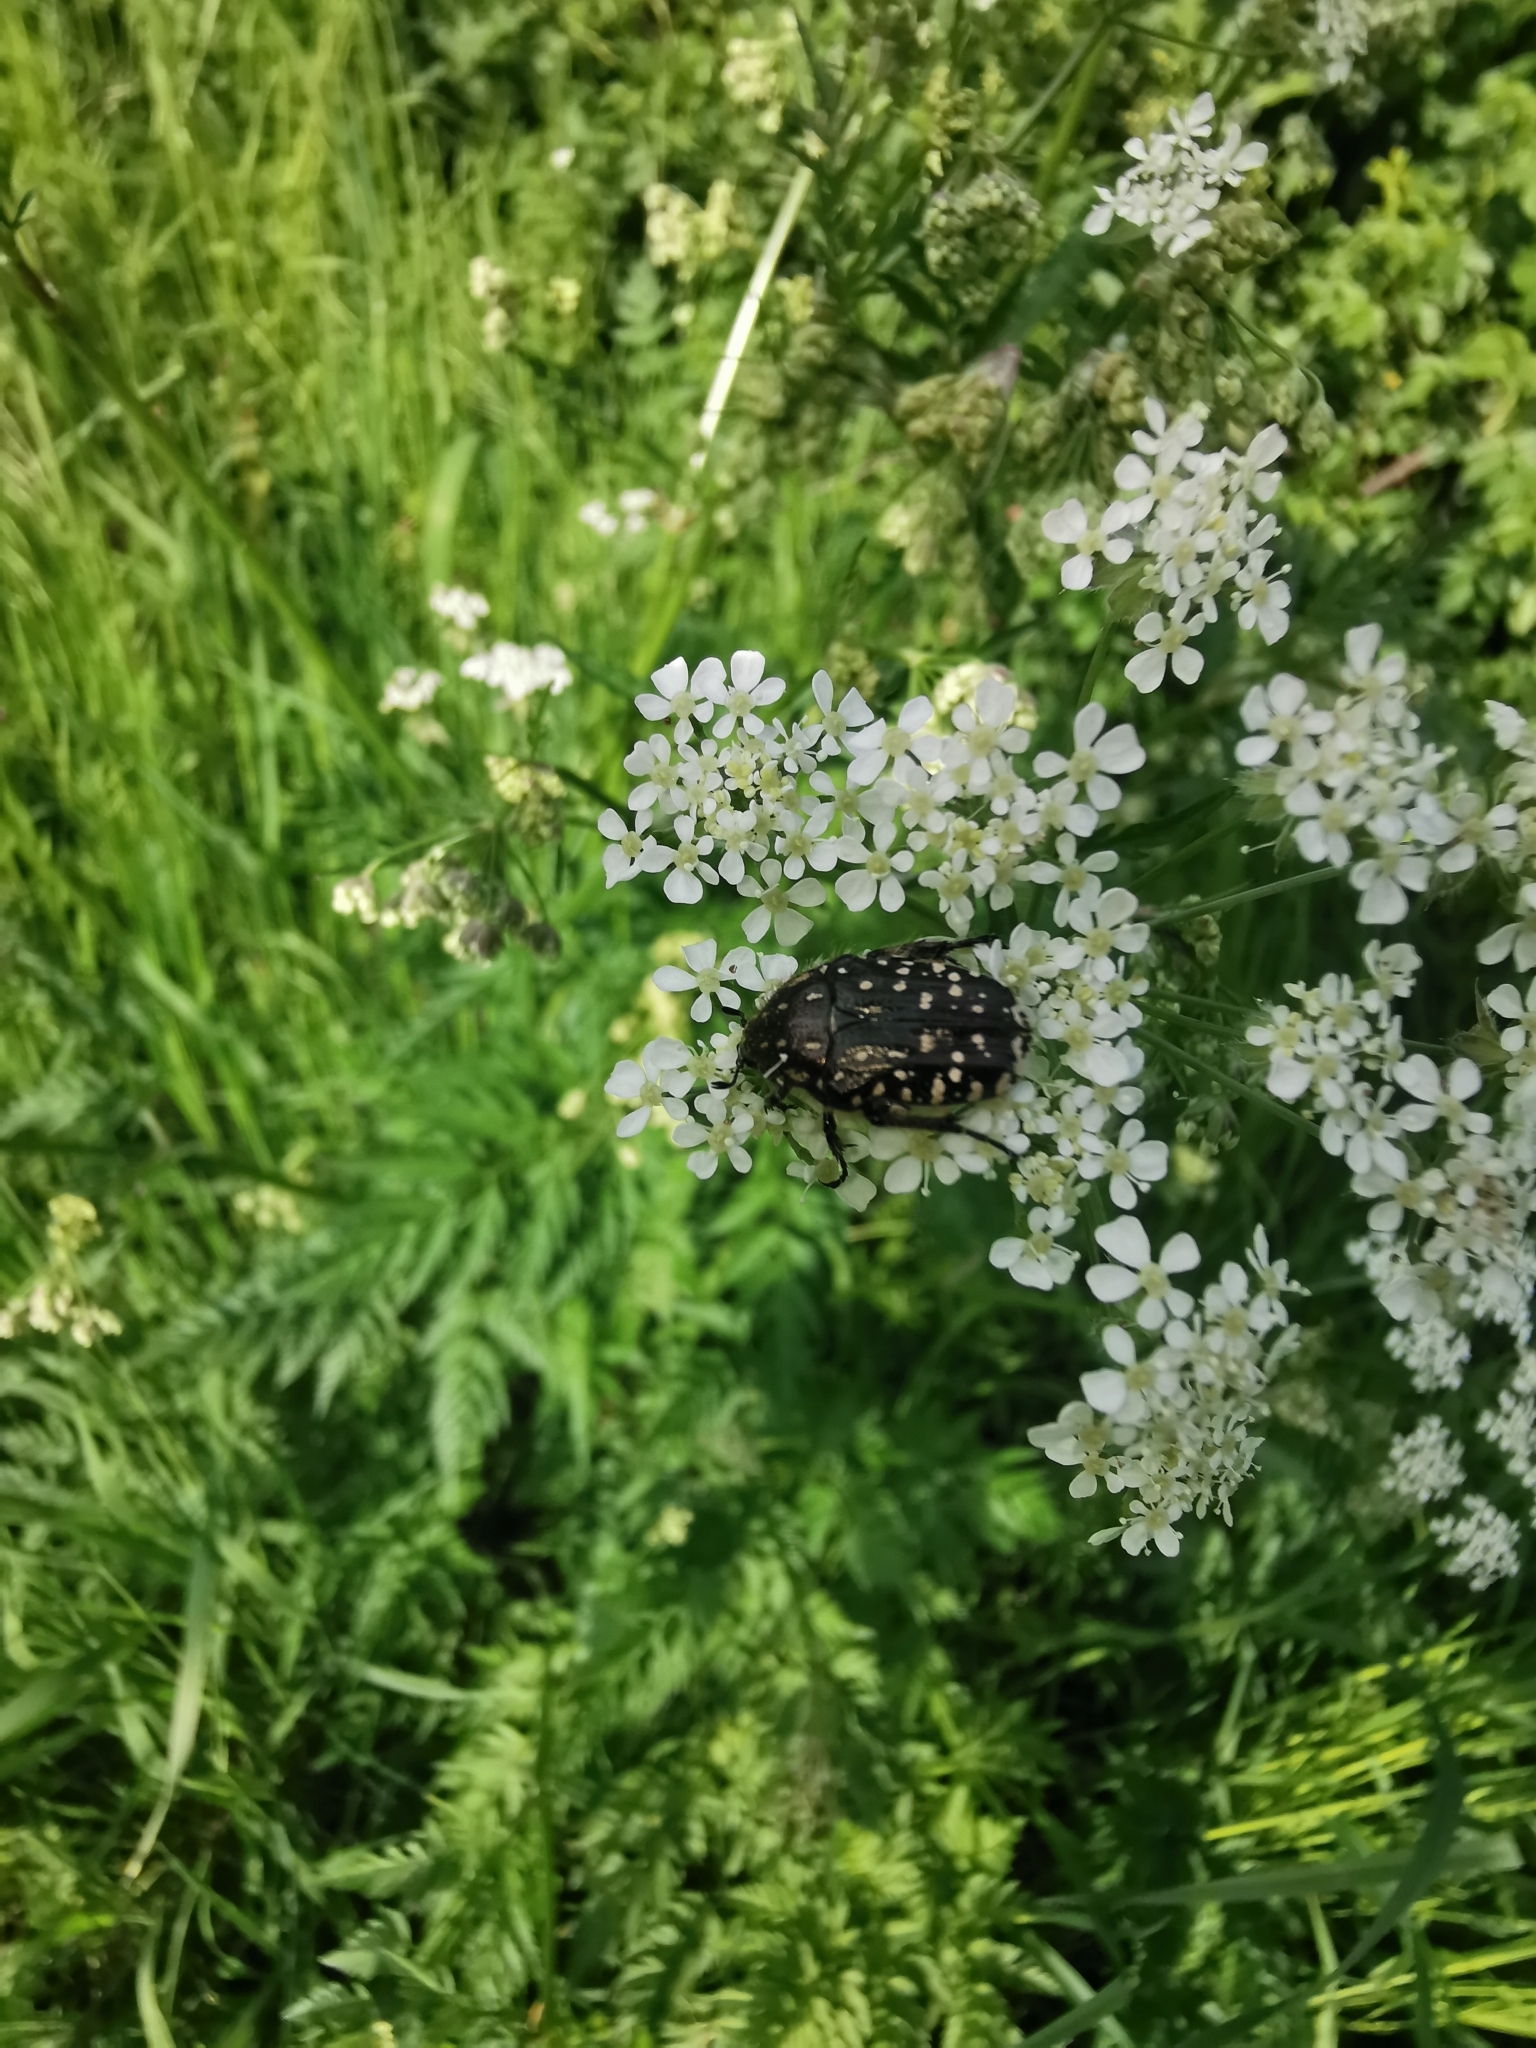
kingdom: Animalia
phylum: Arthropoda
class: Insecta
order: Coleoptera
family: Scarabaeidae
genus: Oxythyrea
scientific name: Oxythyrea funesta
